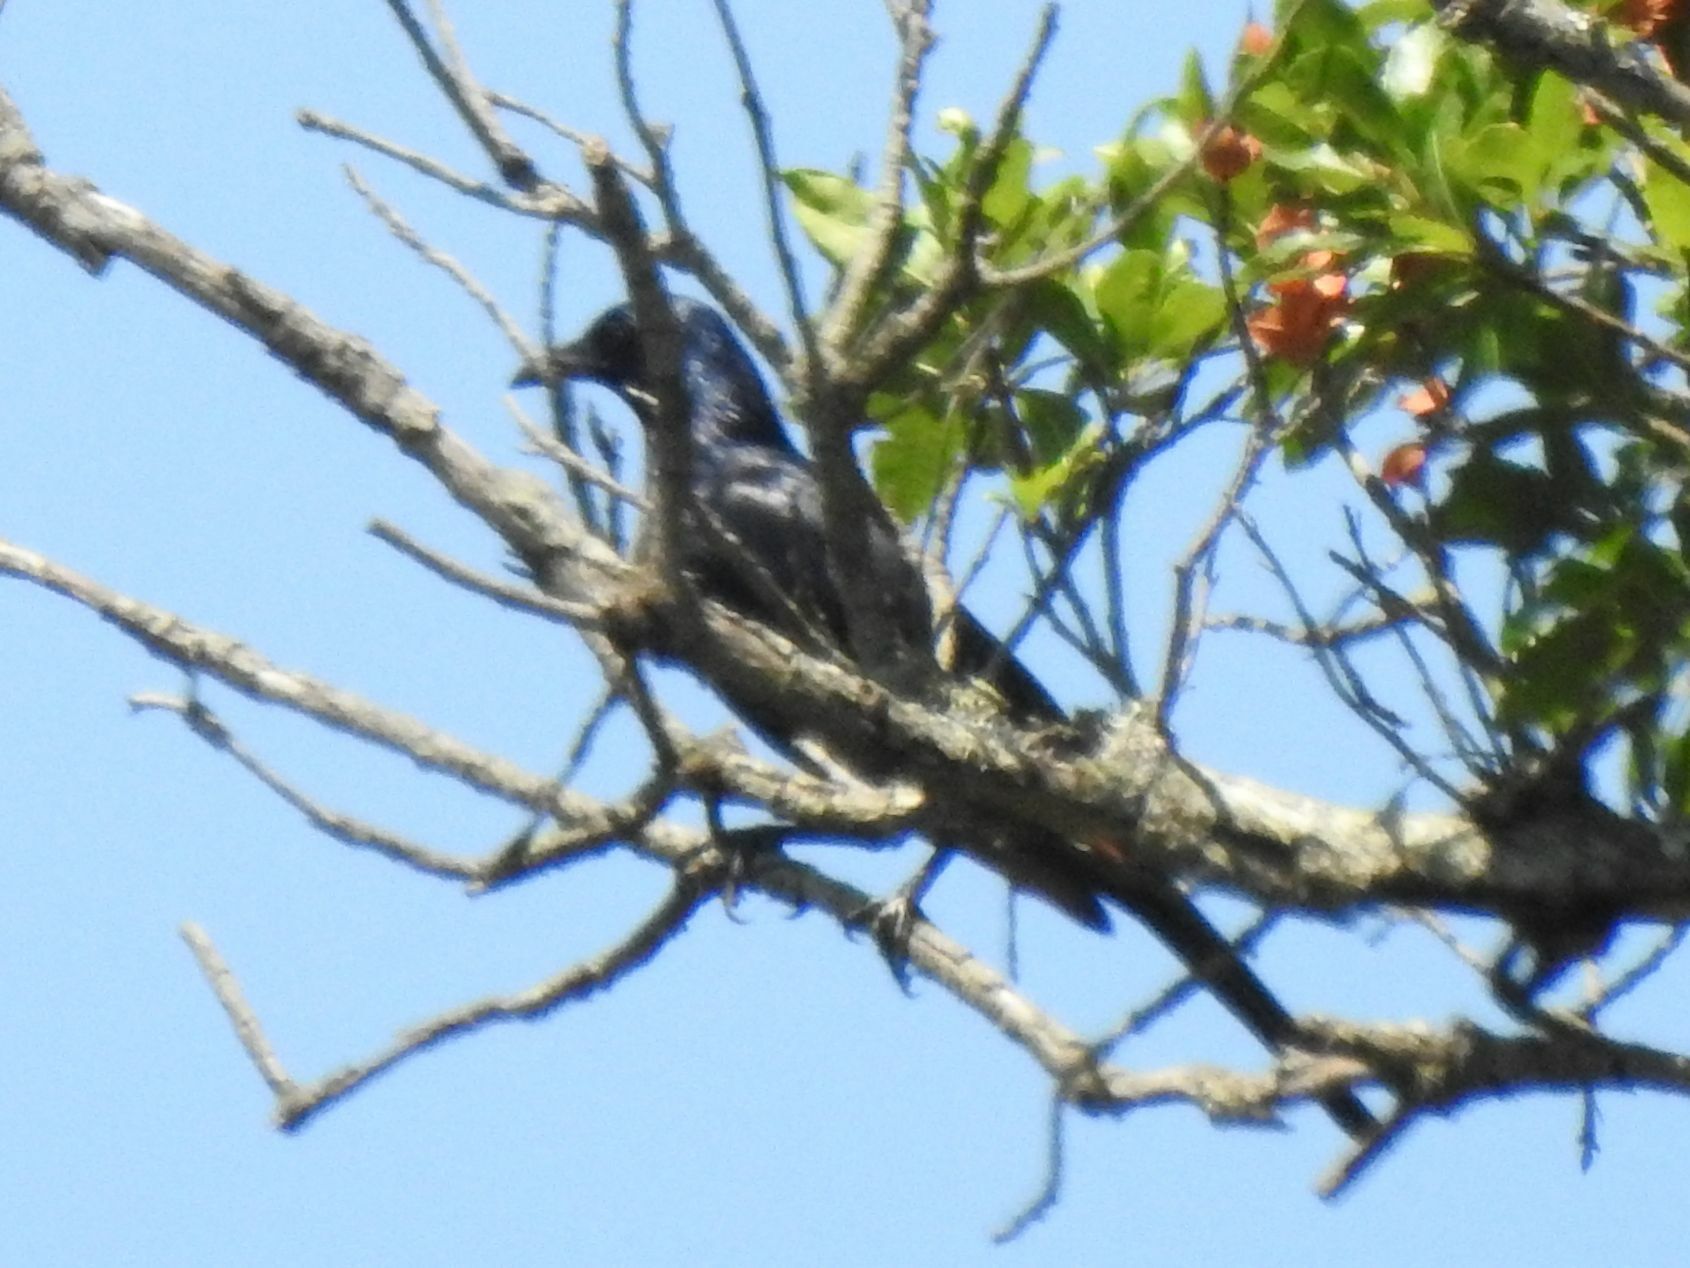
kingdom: Animalia
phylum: Chordata
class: Aves
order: Passeriformes
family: Sturnidae
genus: Onychognathus
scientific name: Onychognathus morio
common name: Red-winged starling
